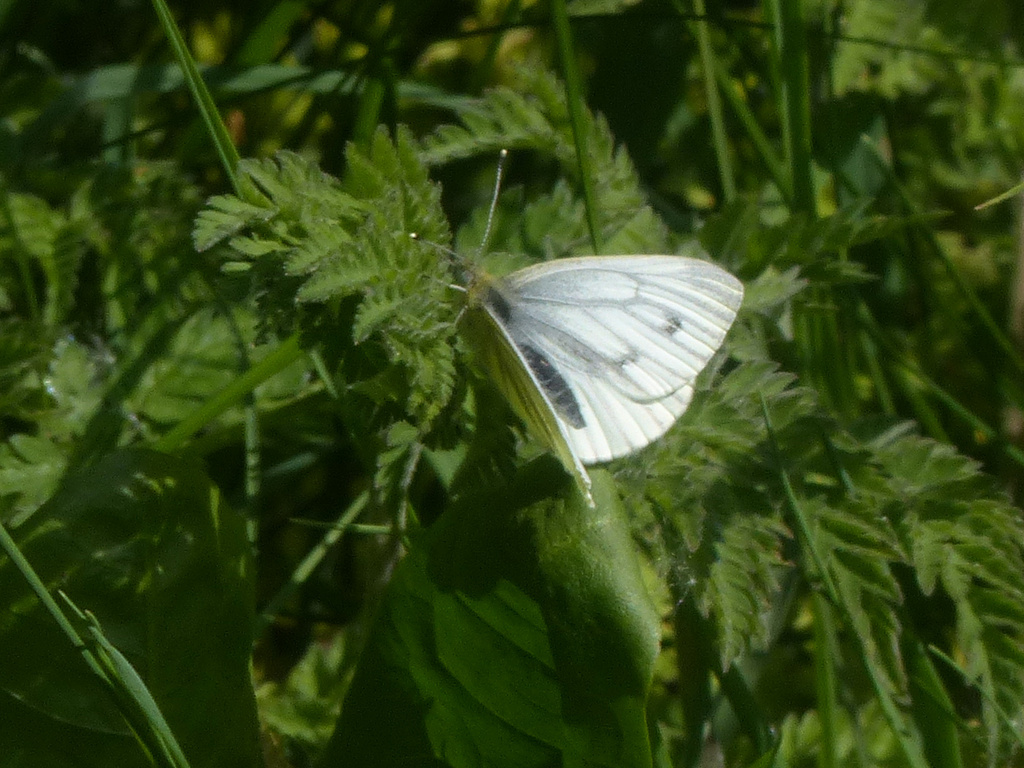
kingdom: Animalia
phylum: Arthropoda
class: Insecta
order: Lepidoptera
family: Pieridae
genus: Pieris
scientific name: Pieris napi
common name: Green-veined white
